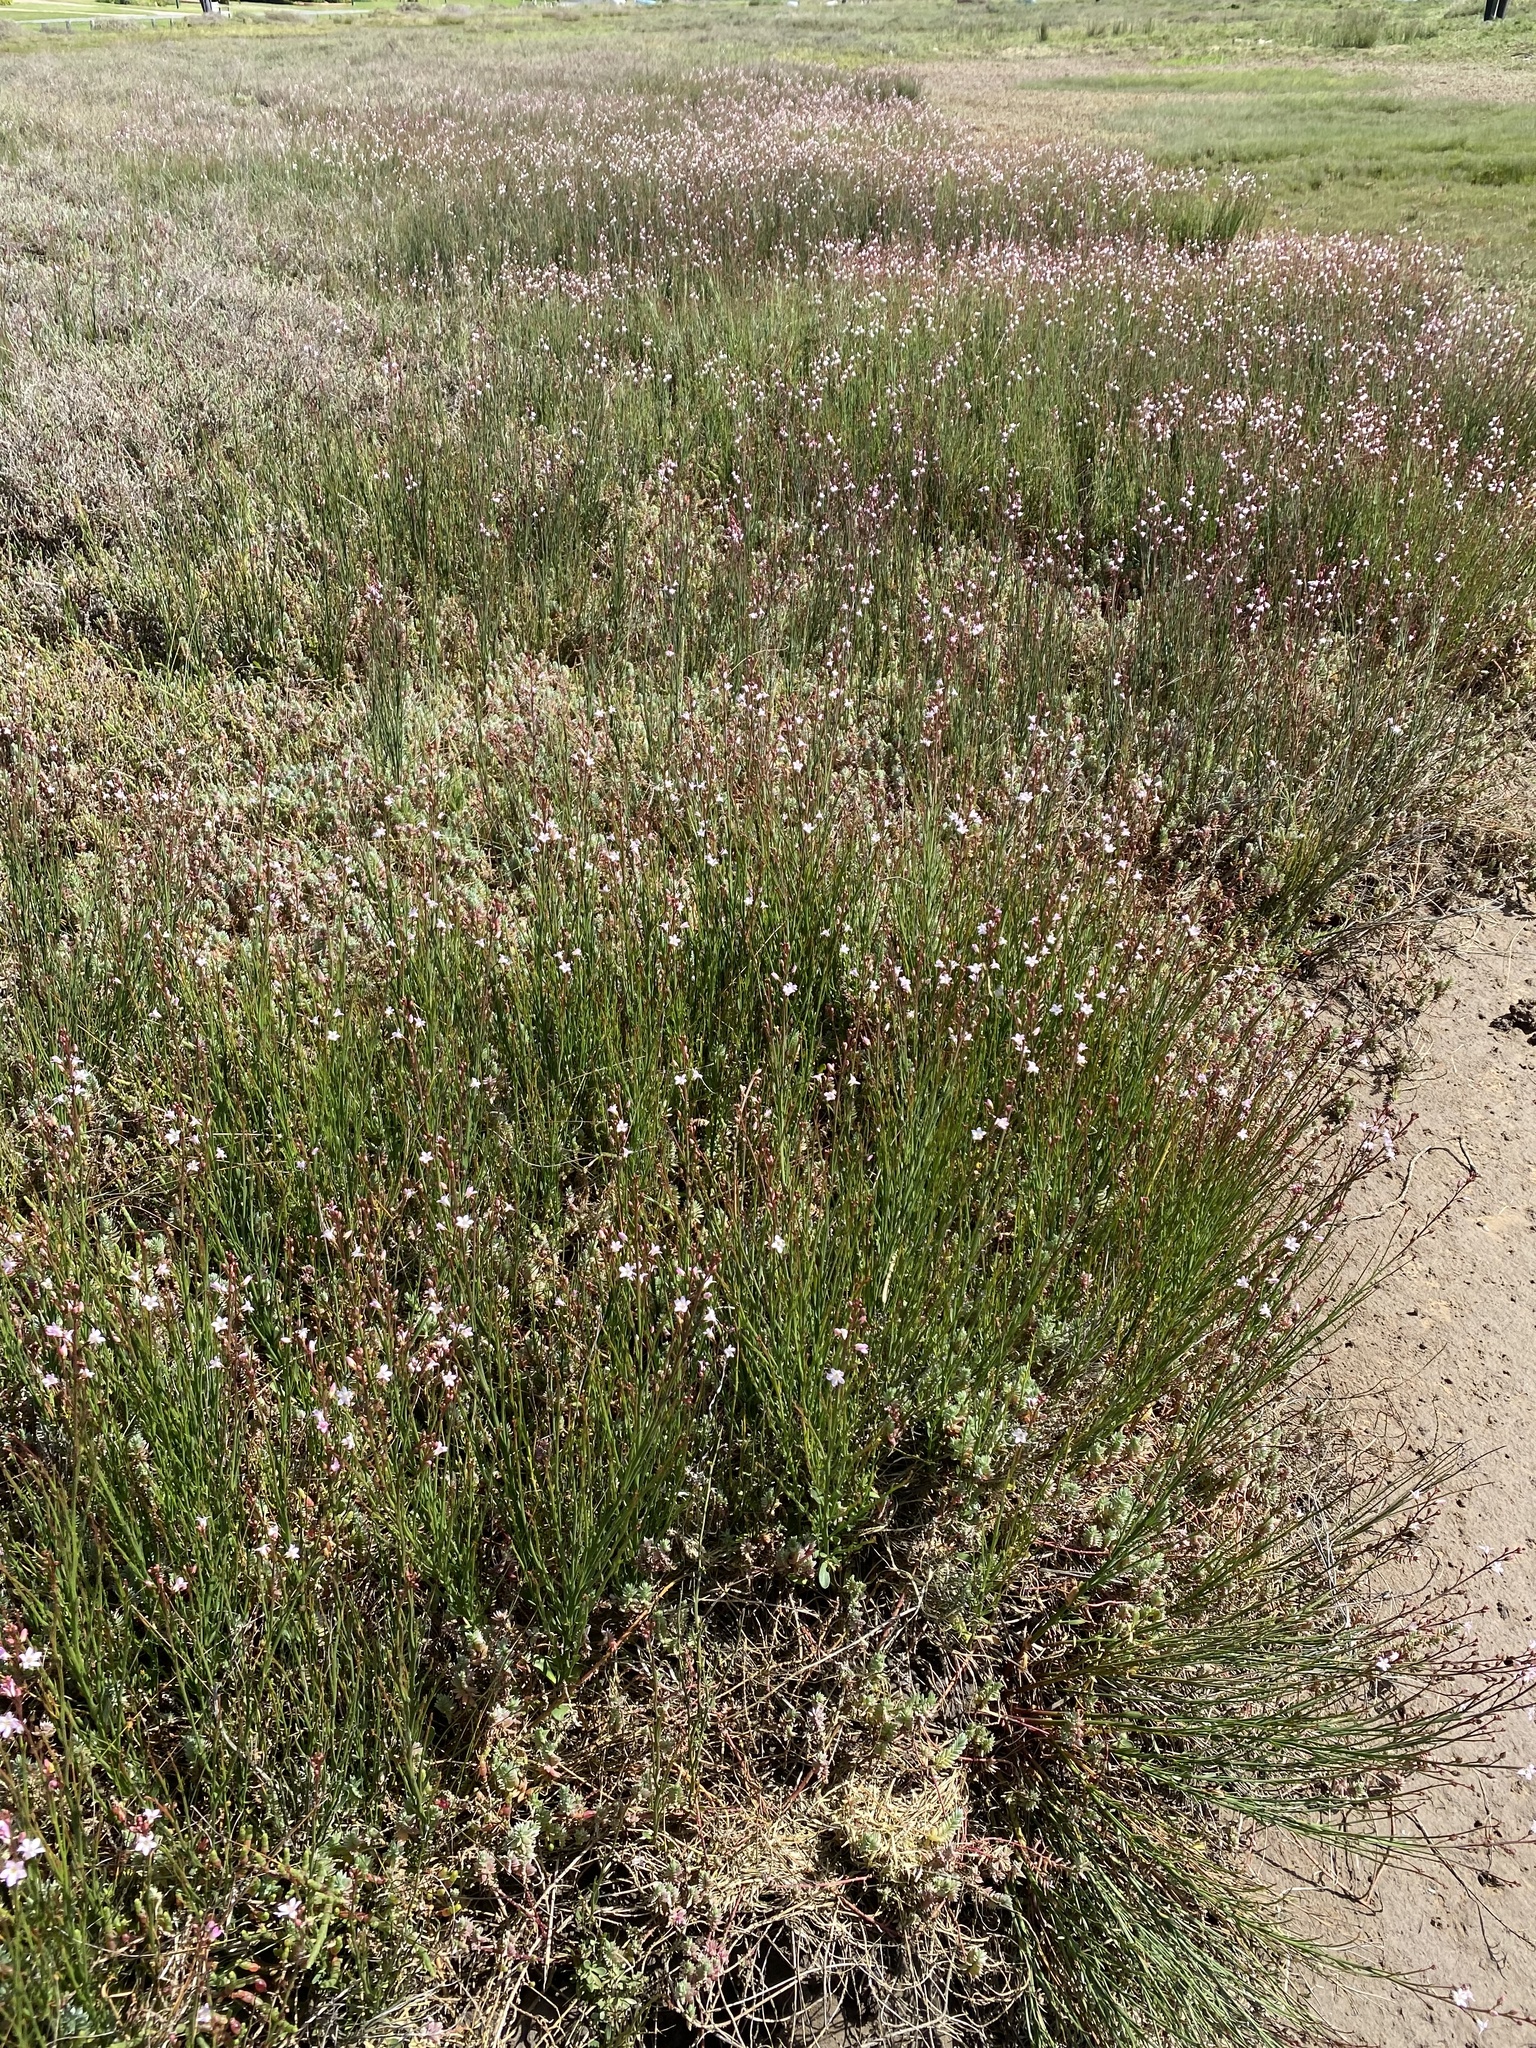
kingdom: Plantae
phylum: Tracheophyta
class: Magnoliopsida
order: Ericales
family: Primulaceae
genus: Samolus
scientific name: Samolus porosus
